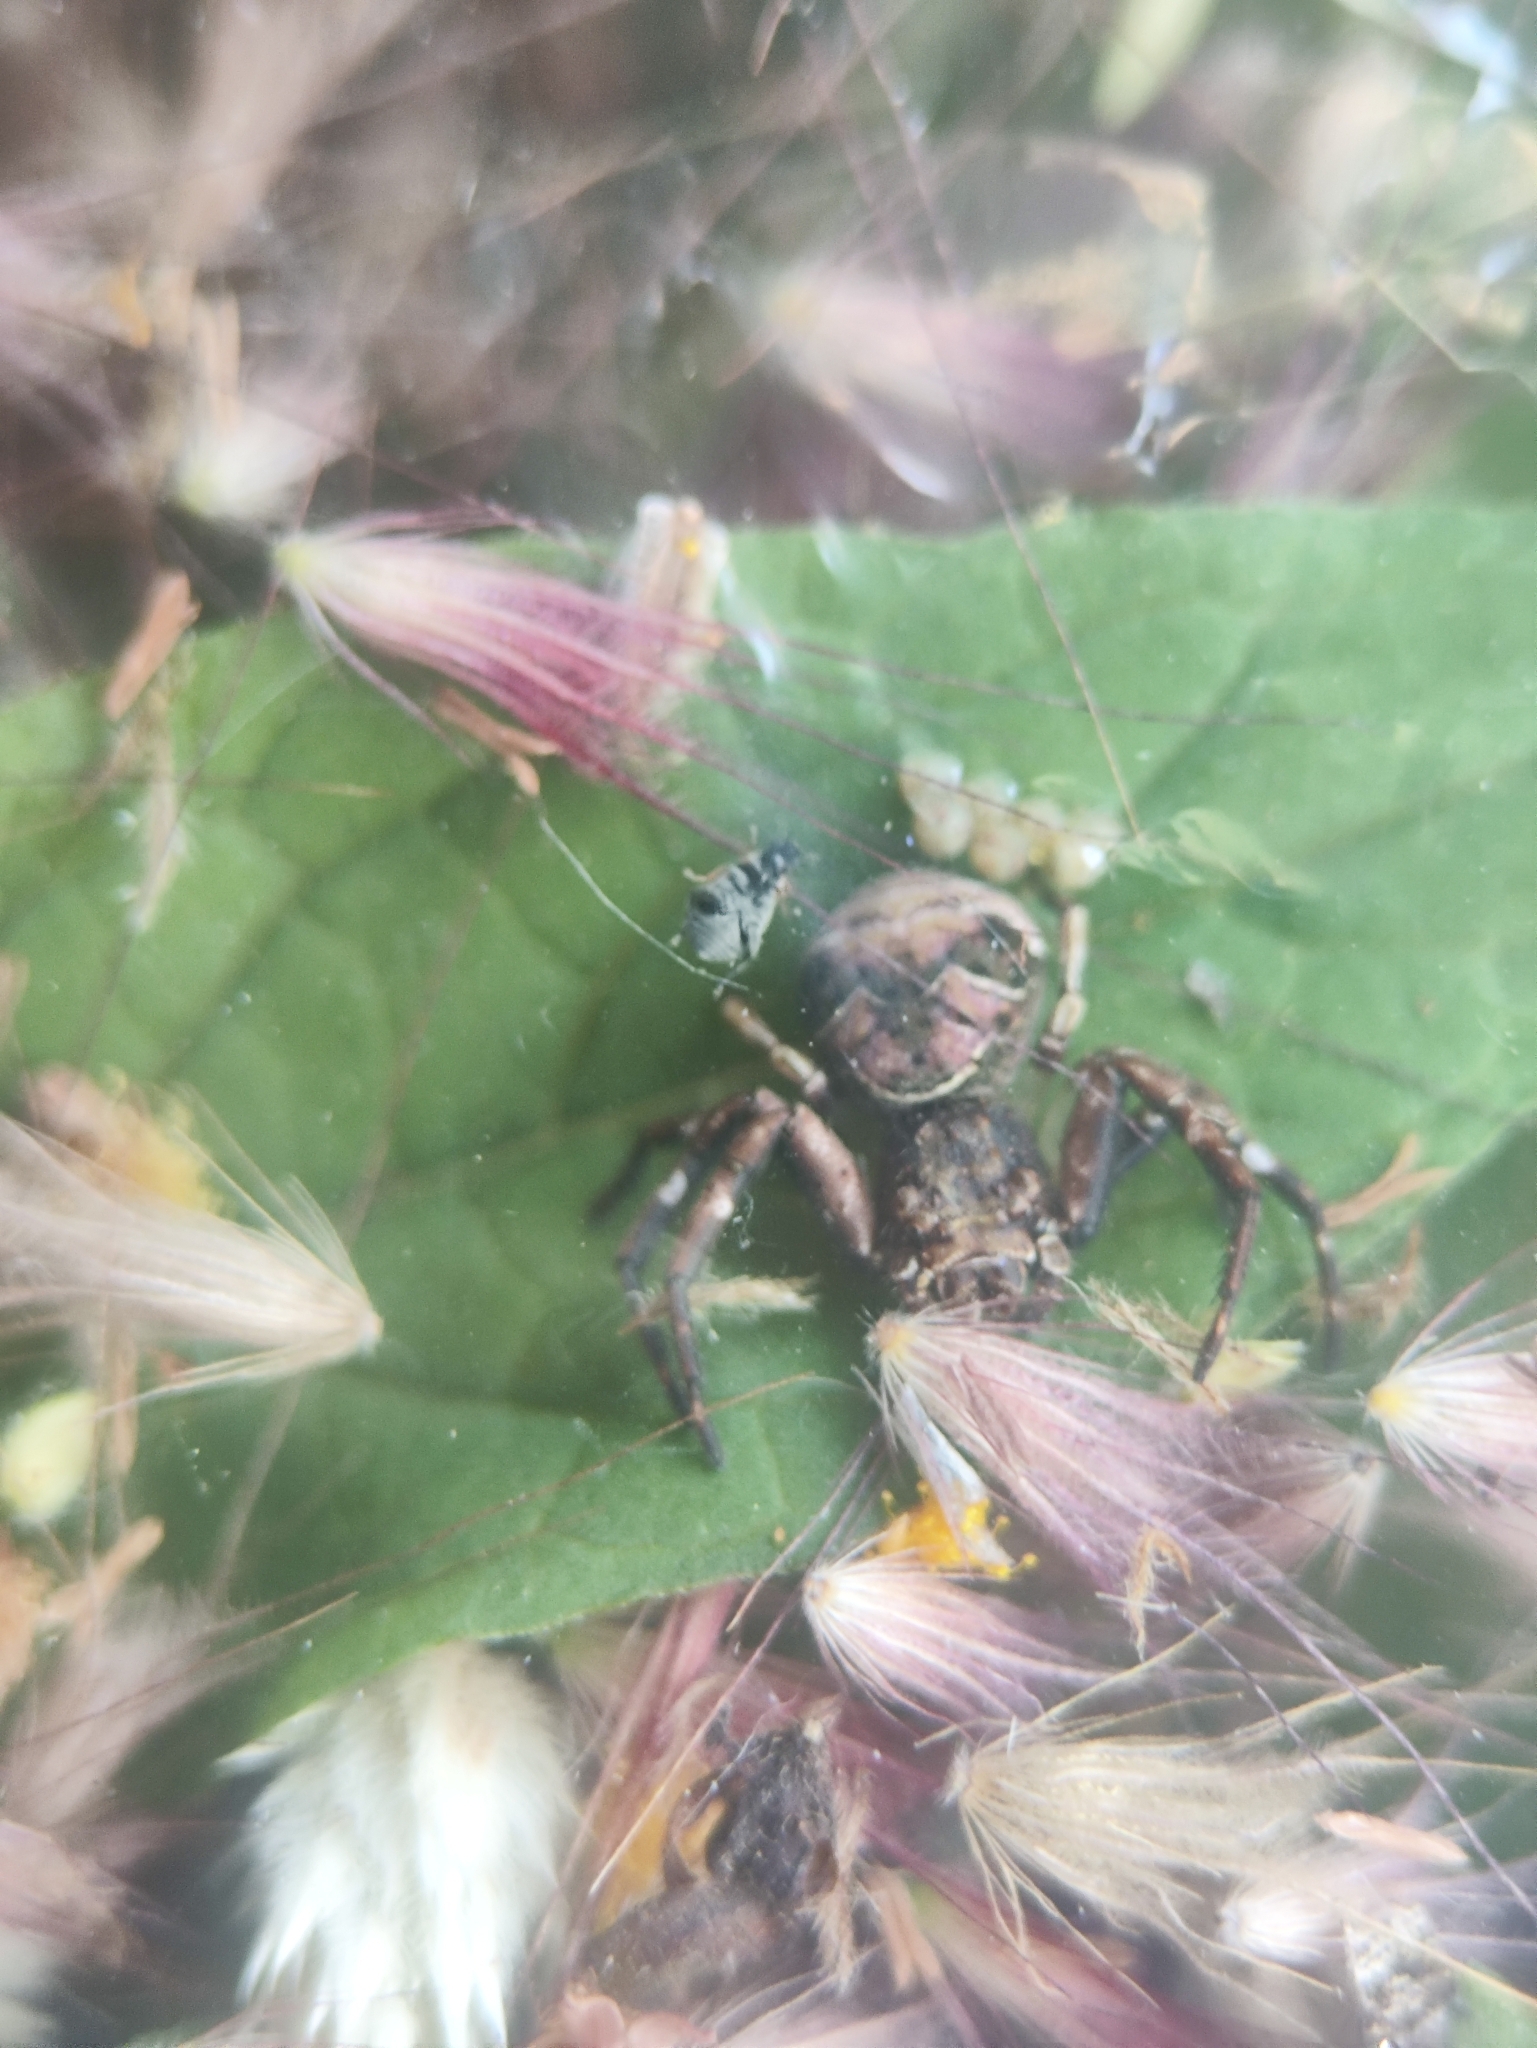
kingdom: Animalia
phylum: Arthropoda
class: Arachnida
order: Araneae
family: Thomisidae
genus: Strigoplus
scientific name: Strigoplus netravati
